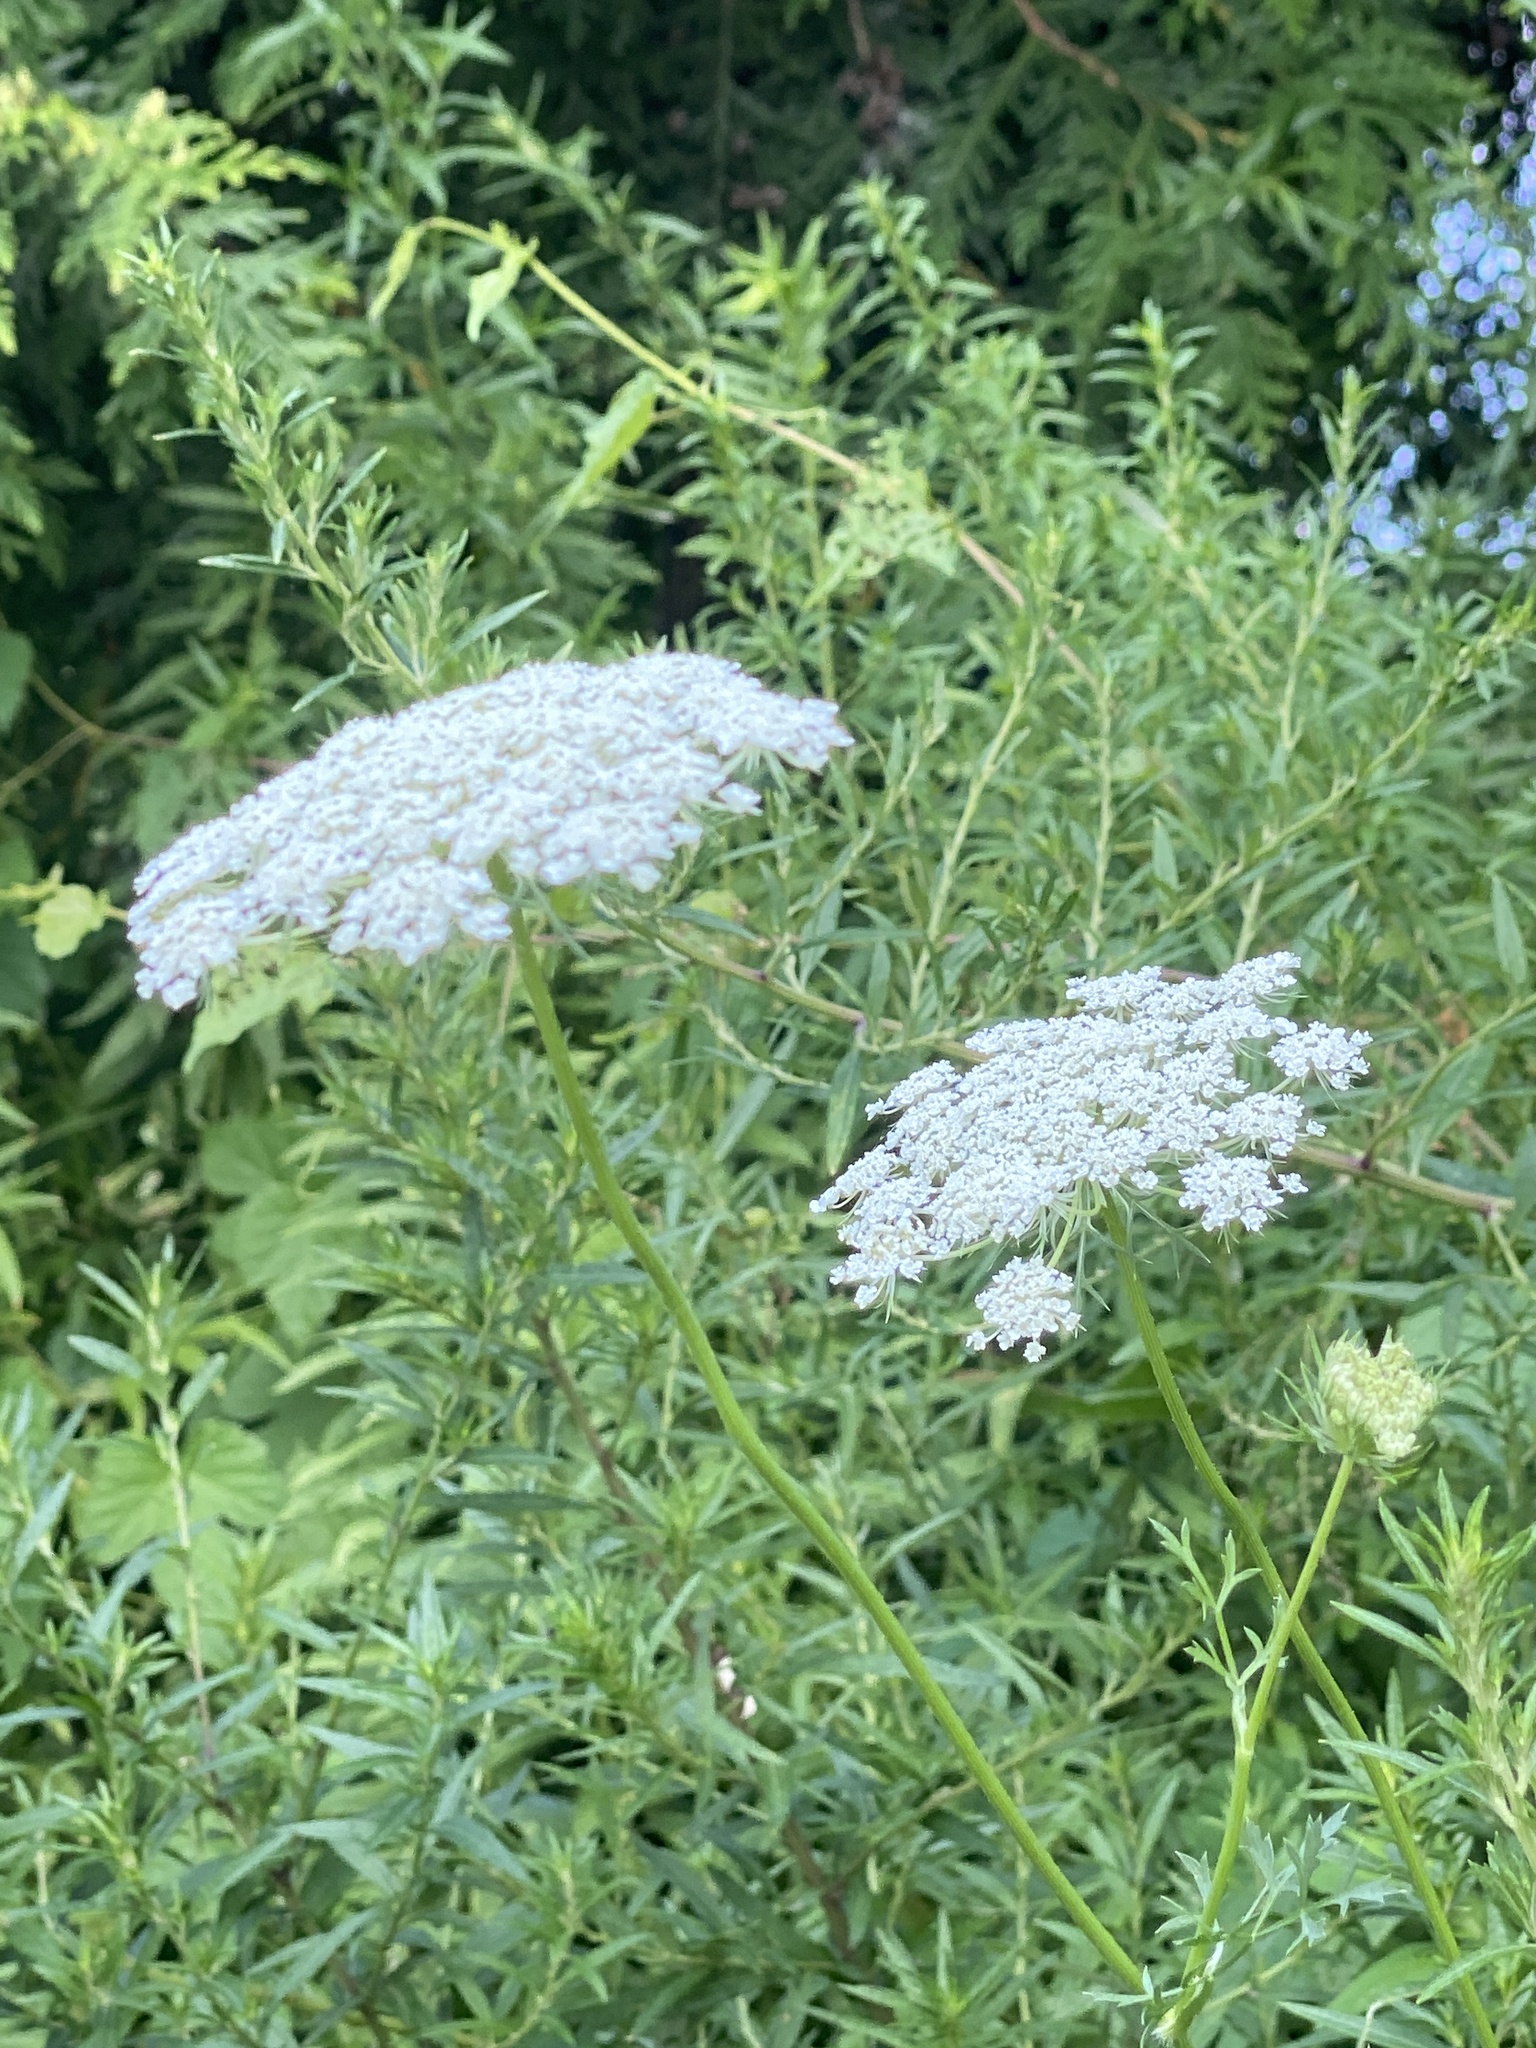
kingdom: Plantae
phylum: Tracheophyta
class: Magnoliopsida
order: Apiales
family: Apiaceae
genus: Daucus
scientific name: Daucus carota
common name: Wild carrot
